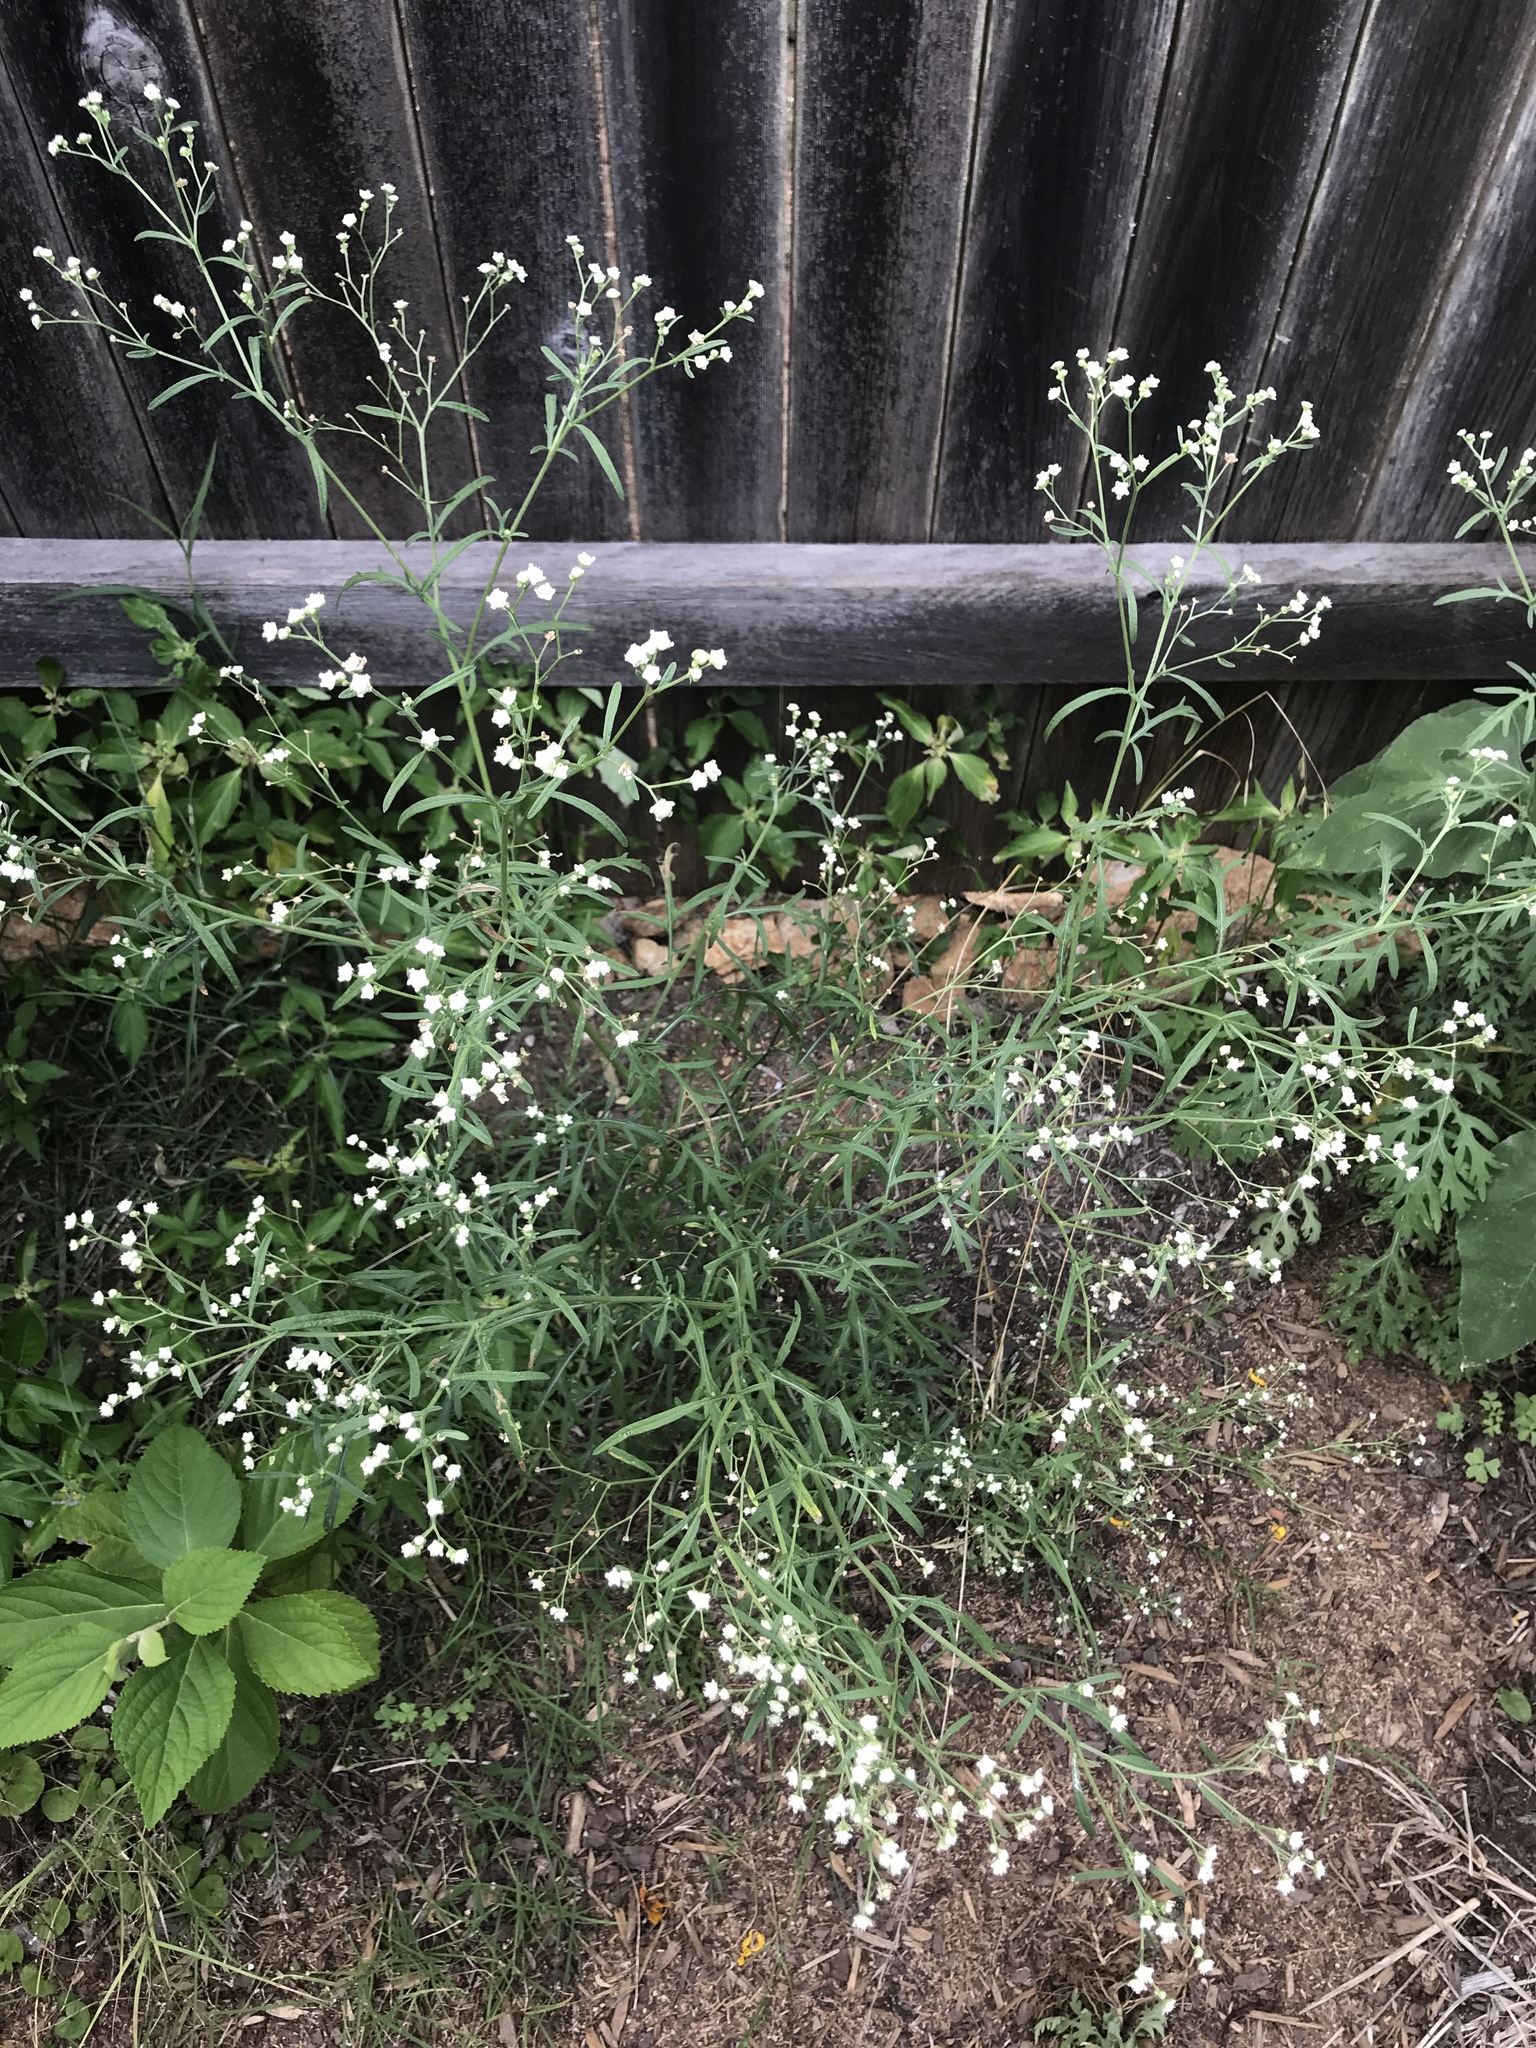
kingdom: Plantae
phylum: Tracheophyta
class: Magnoliopsida
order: Asterales
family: Asteraceae
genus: Parthenium
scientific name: Parthenium hysterophorus
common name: Santa maria feverfew
